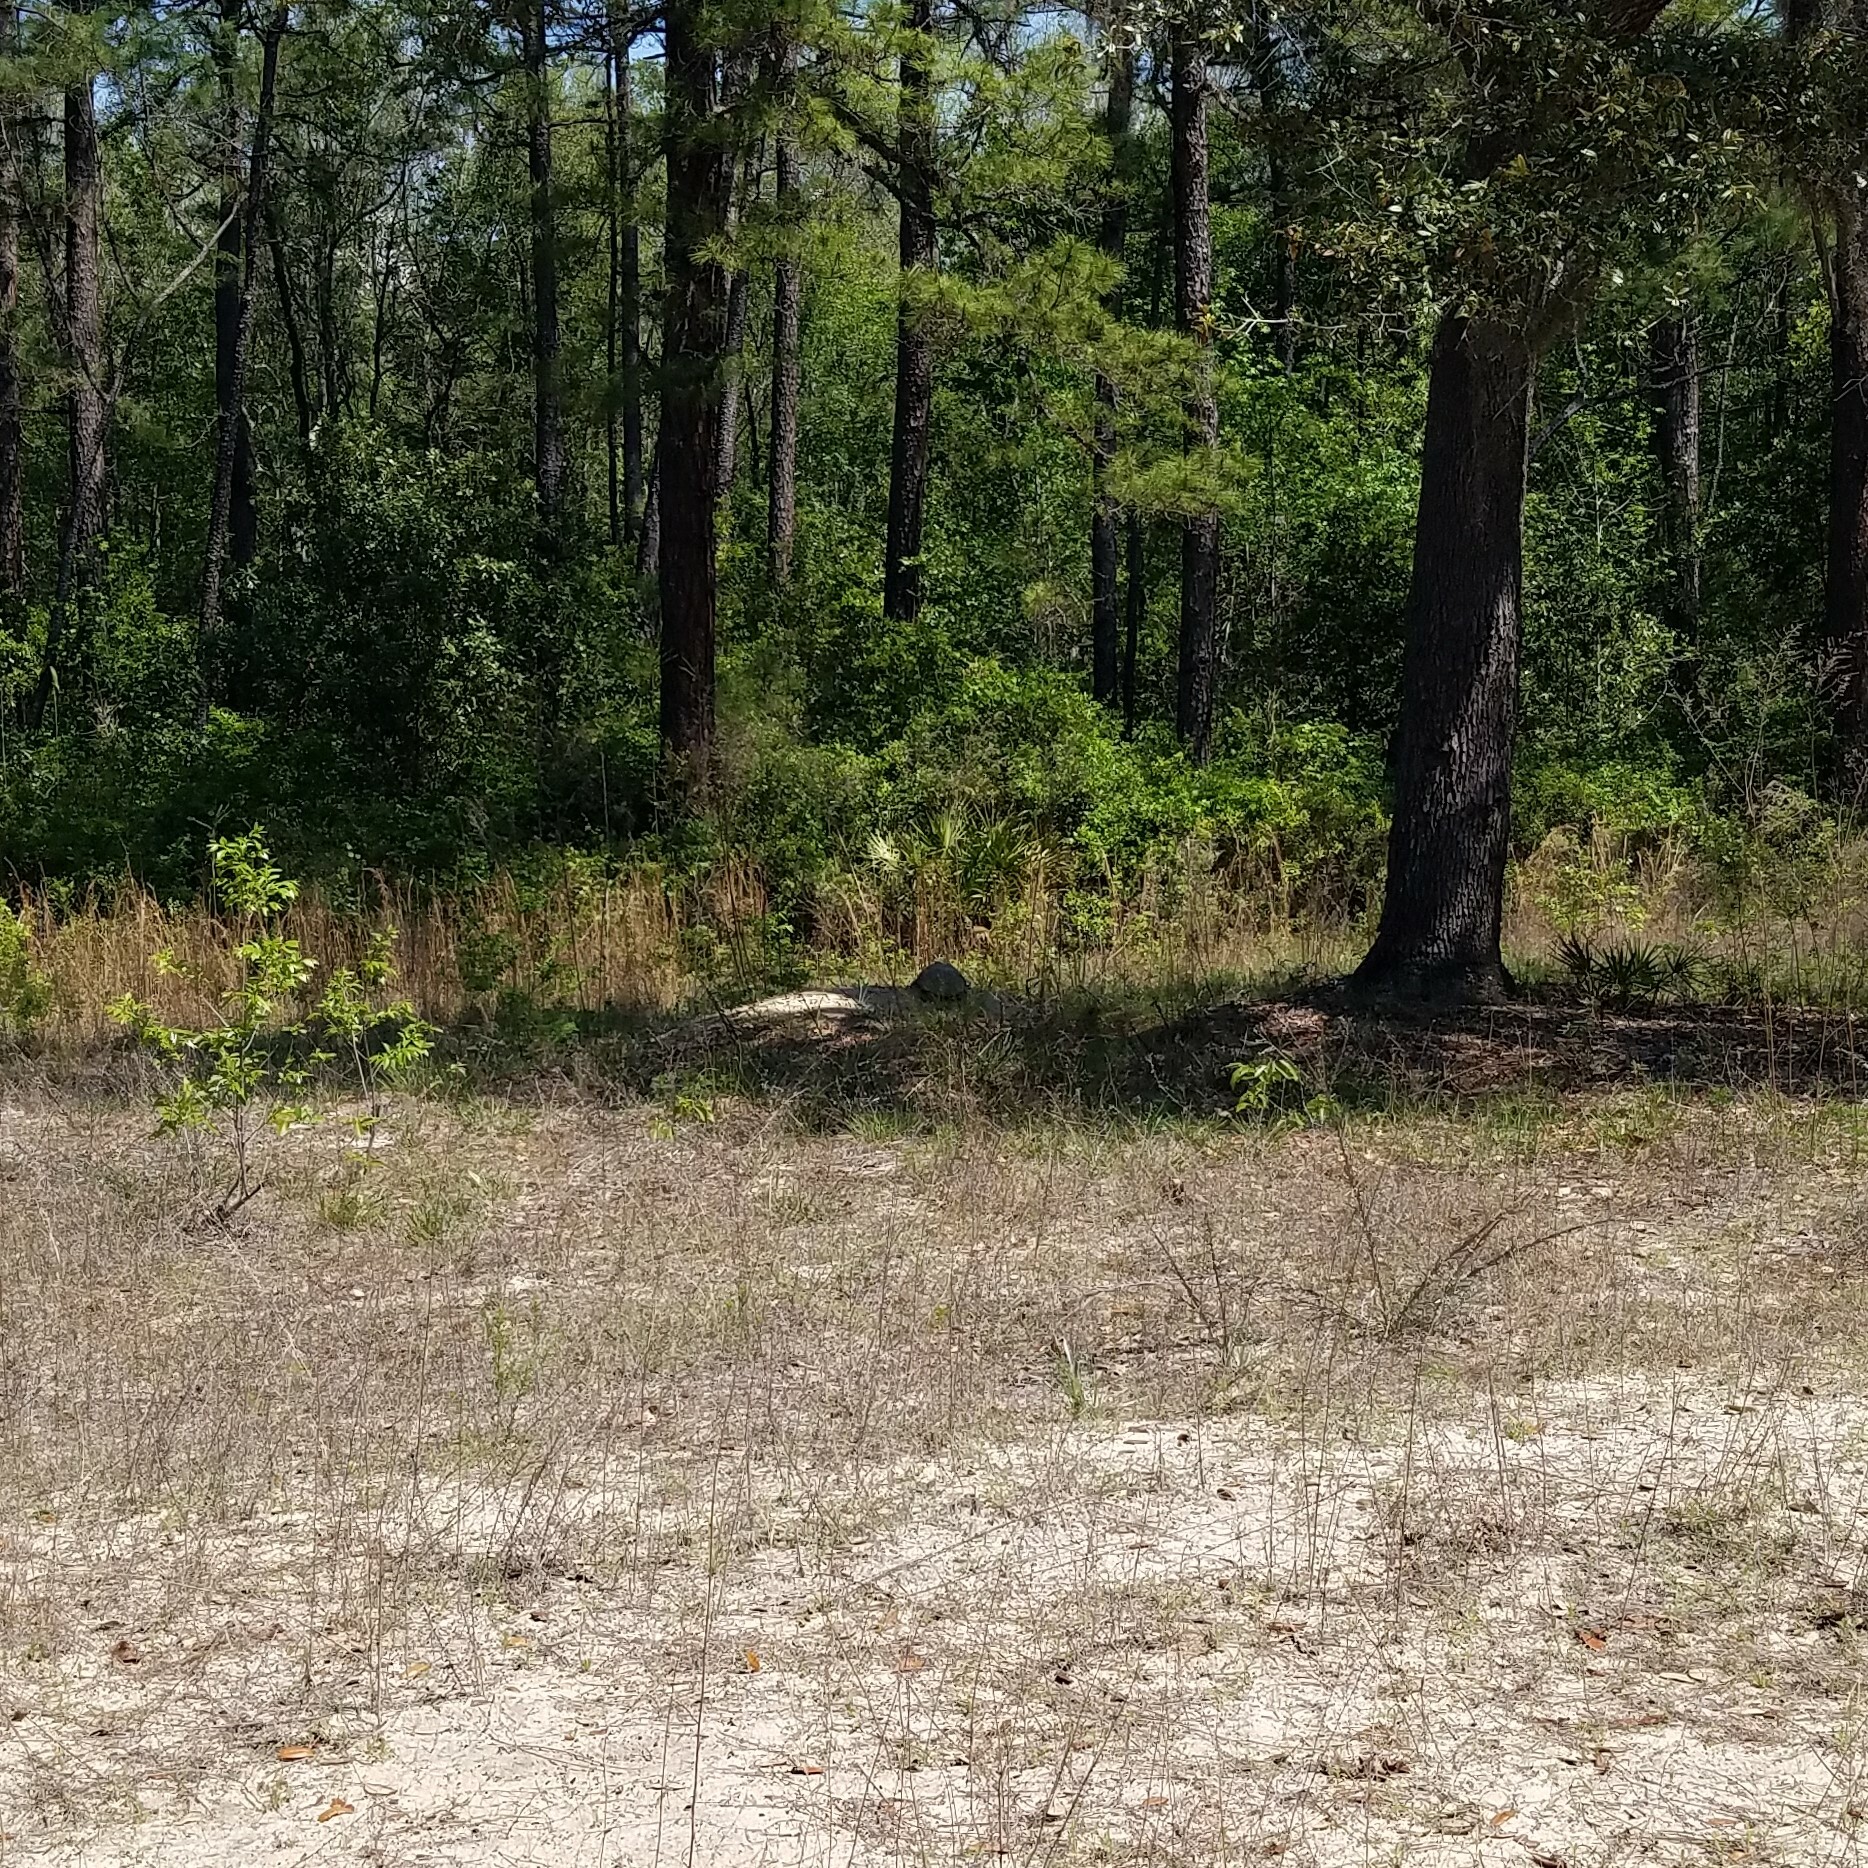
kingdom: Animalia
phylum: Chordata
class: Testudines
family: Testudinidae
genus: Gopherus
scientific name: Gopherus polyphemus
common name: Florida gopher tortoise
